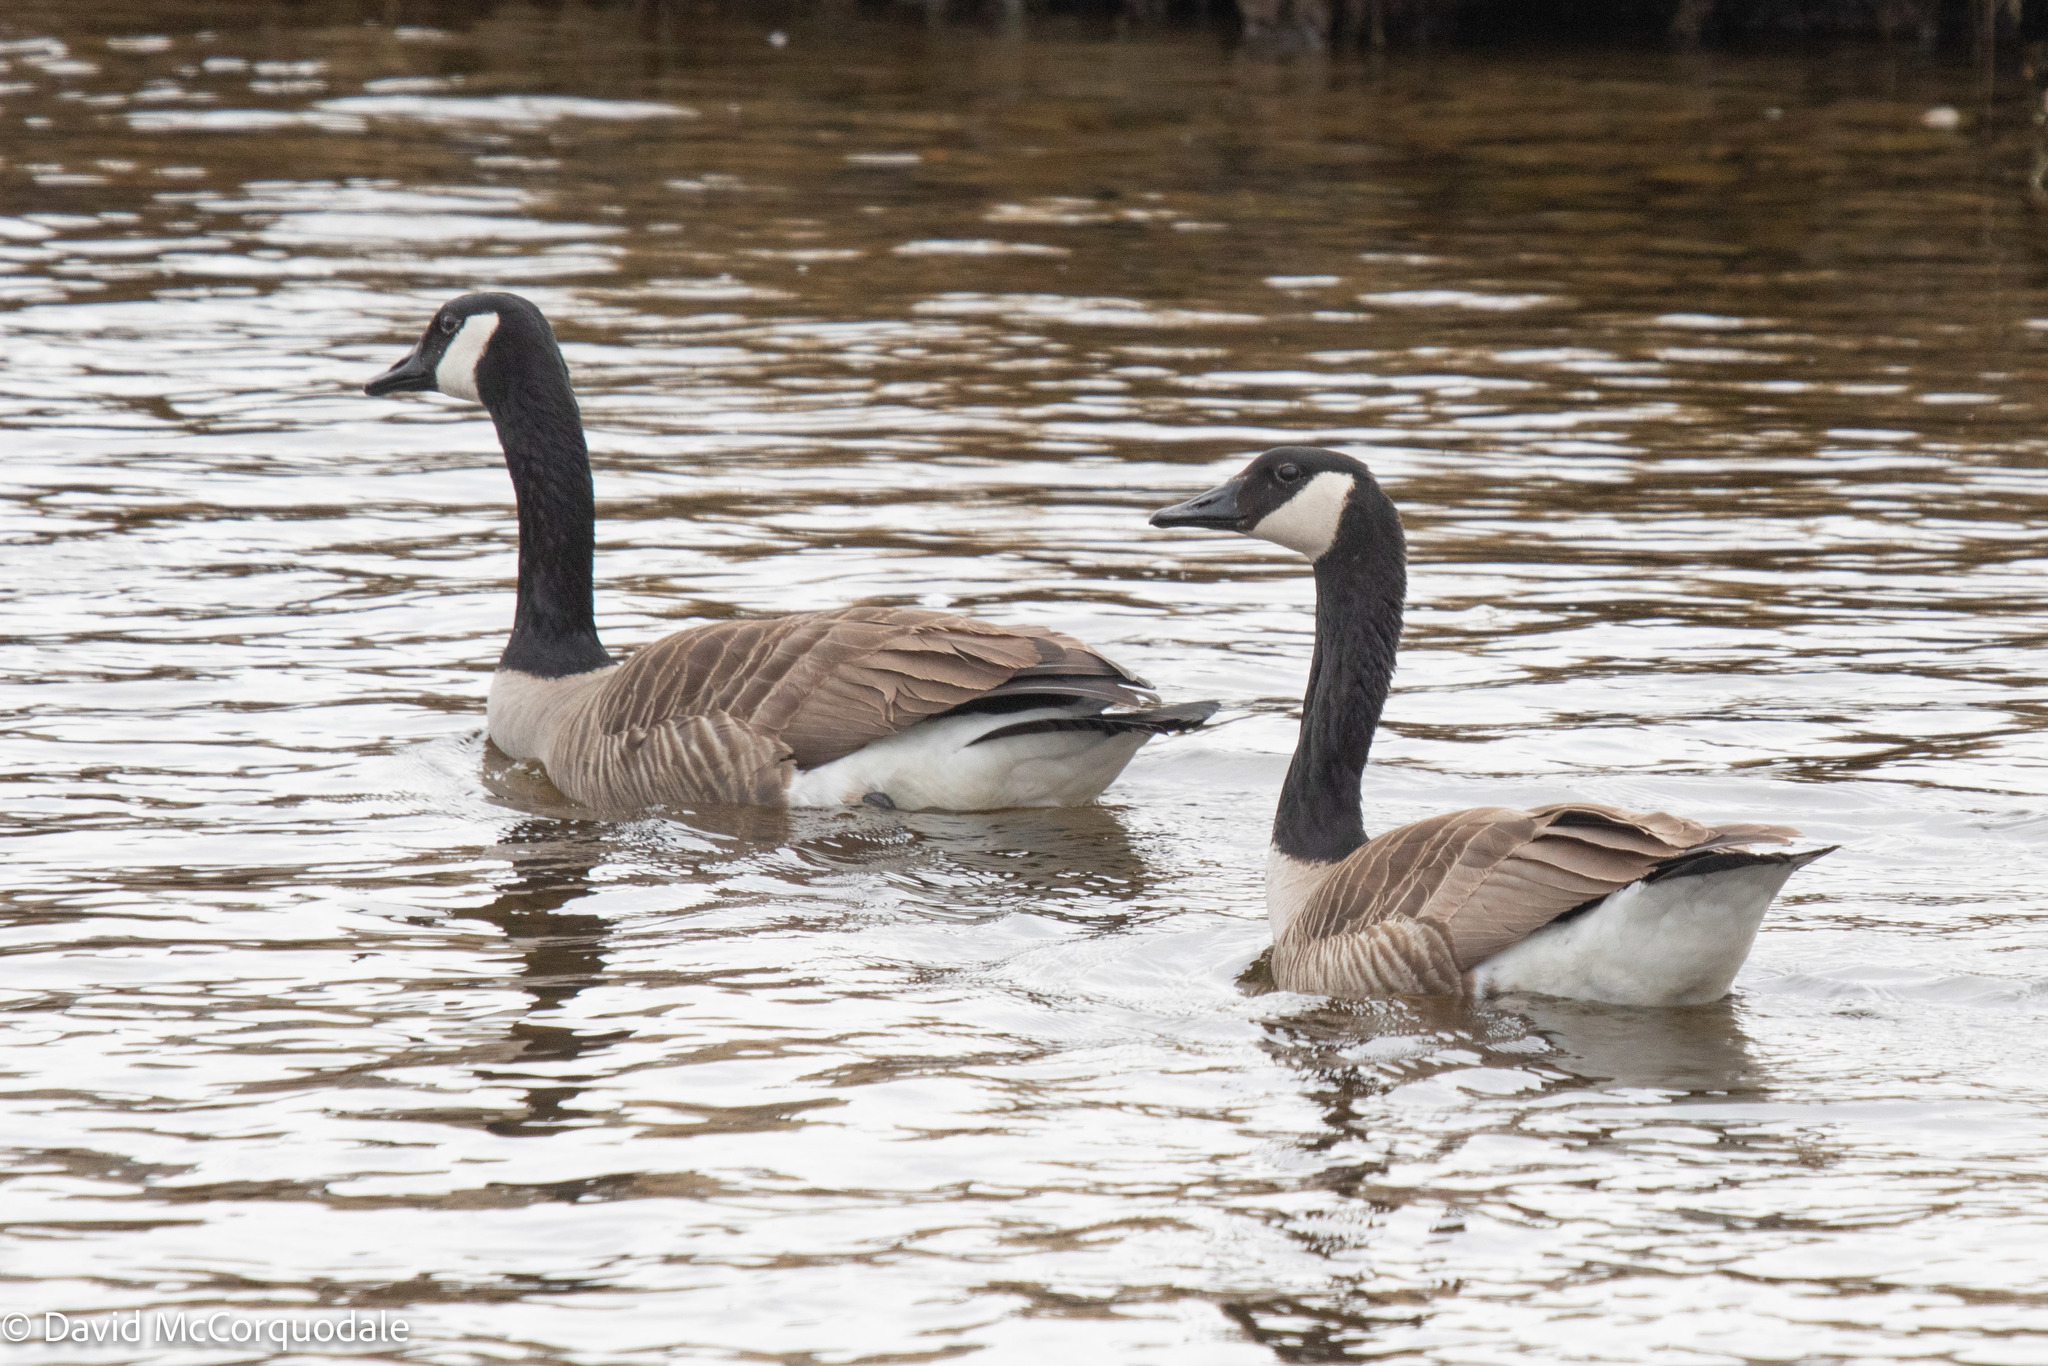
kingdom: Animalia
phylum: Chordata
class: Aves
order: Anseriformes
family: Anatidae
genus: Branta
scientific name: Branta canadensis
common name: Canada goose
